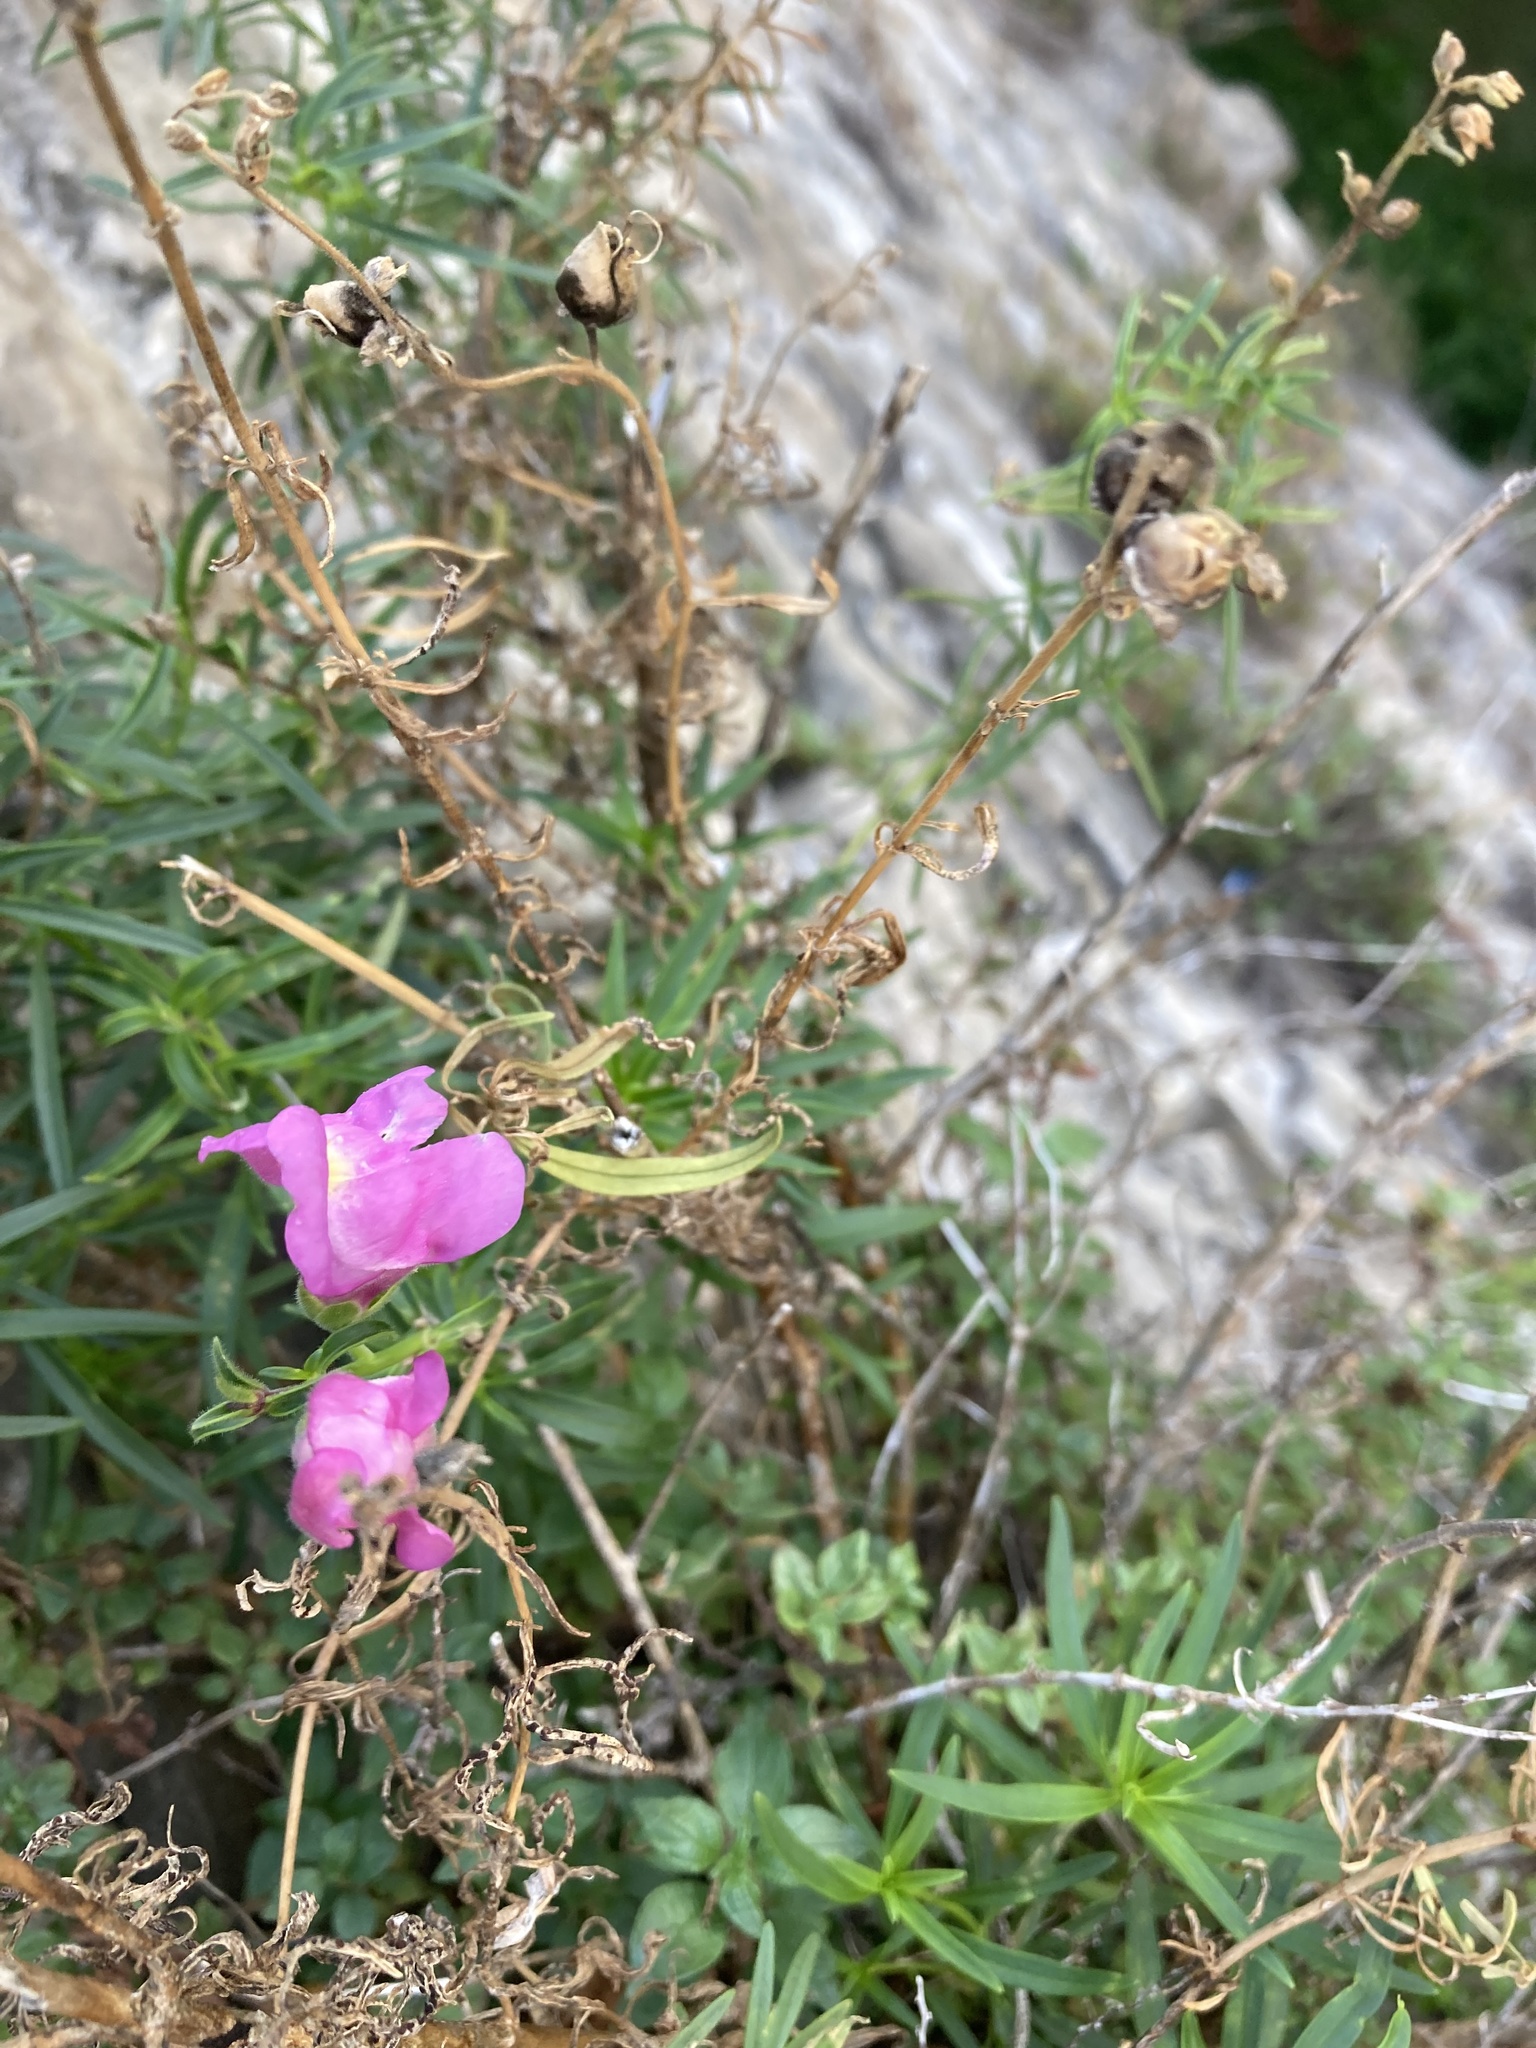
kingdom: Plantae
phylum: Tracheophyta
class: Magnoliopsida
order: Lamiales
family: Plantaginaceae
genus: Antirrhinum
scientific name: Antirrhinum tortuosum
